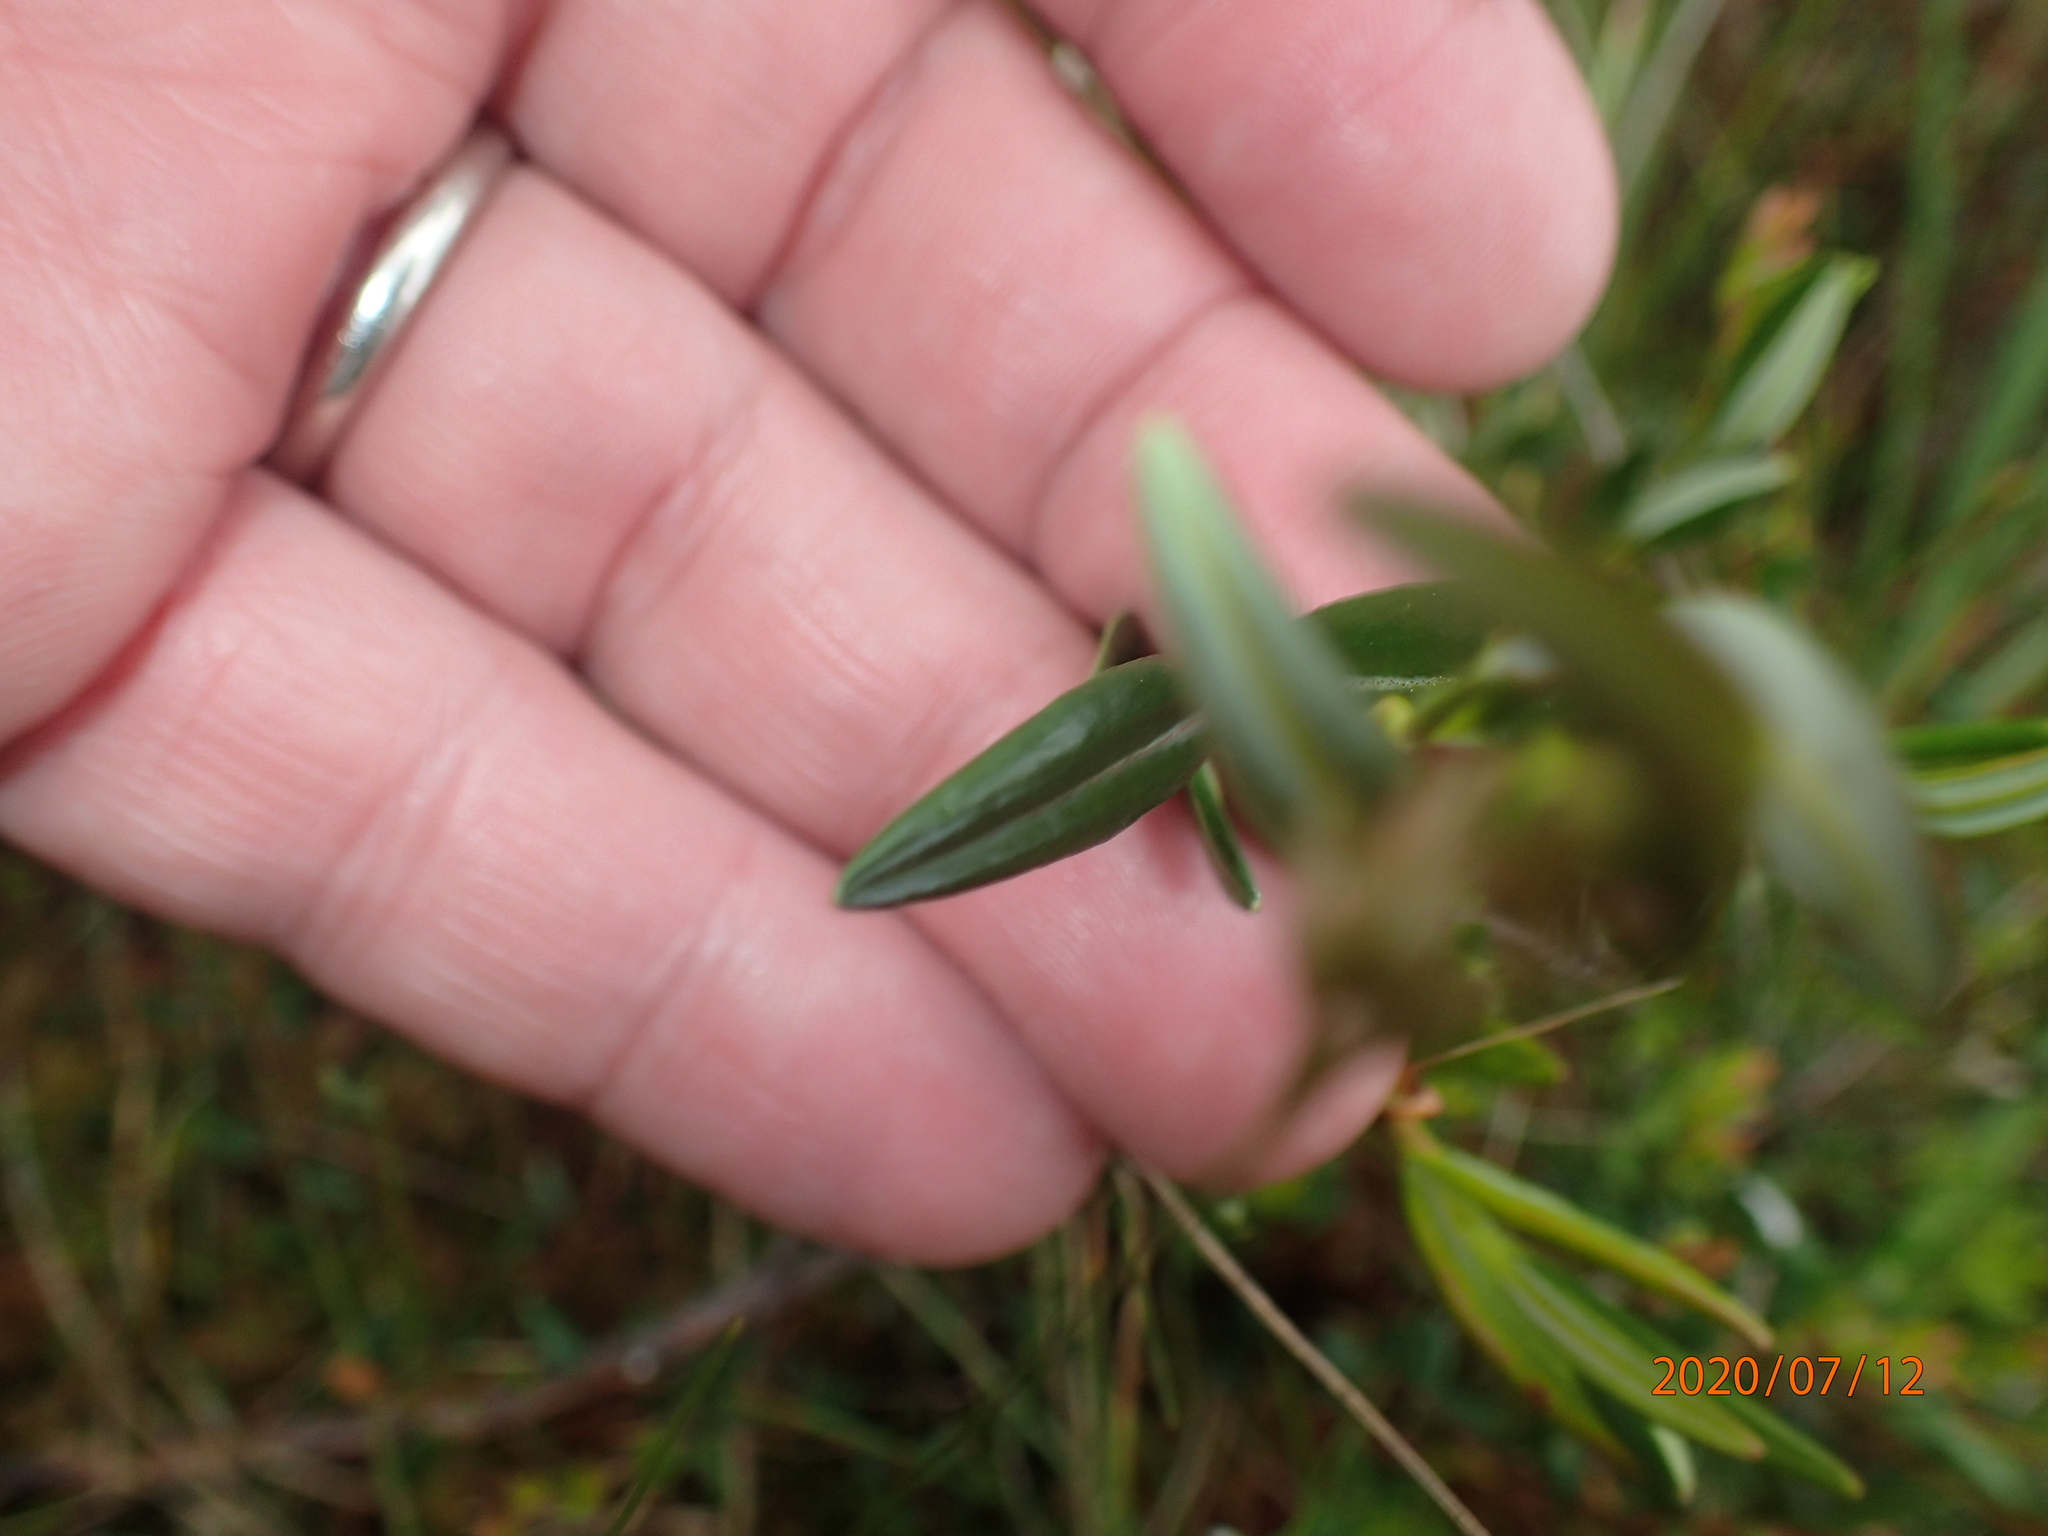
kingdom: Plantae
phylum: Tracheophyta
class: Magnoliopsida
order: Ericales
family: Ericaceae
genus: Kalmia
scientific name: Kalmia polifolia
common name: Bog-laurel
